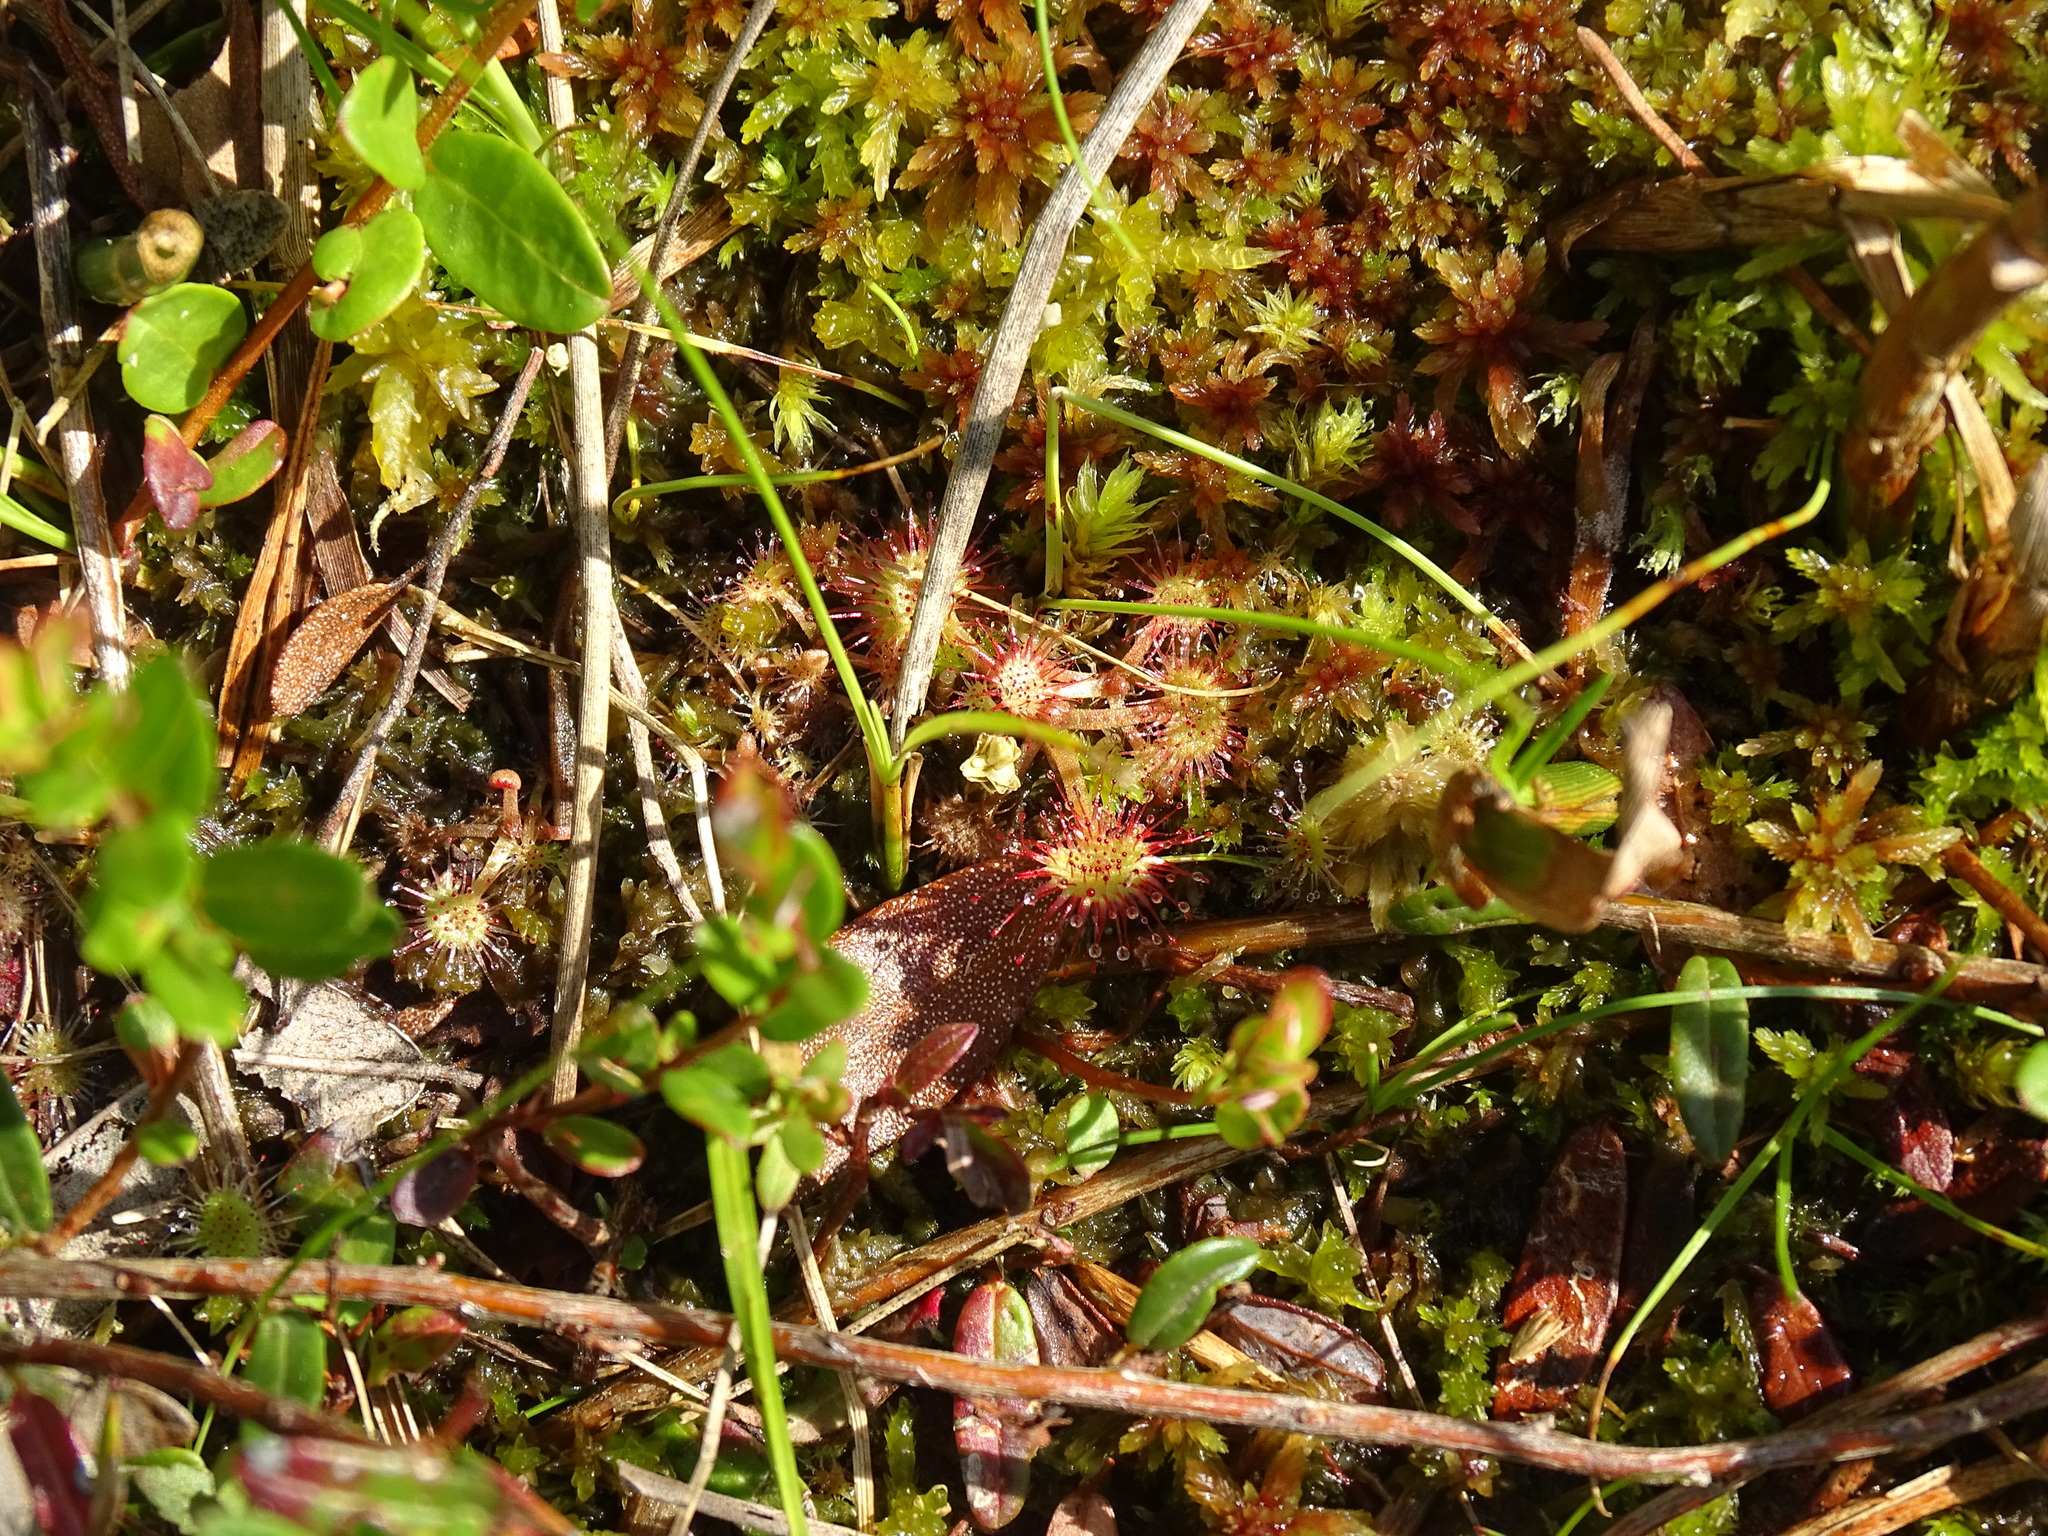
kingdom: Plantae
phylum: Tracheophyta
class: Magnoliopsida
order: Caryophyllales
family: Droseraceae
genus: Drosera
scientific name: Drosera rotundifolia
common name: Round-leaved sundew
